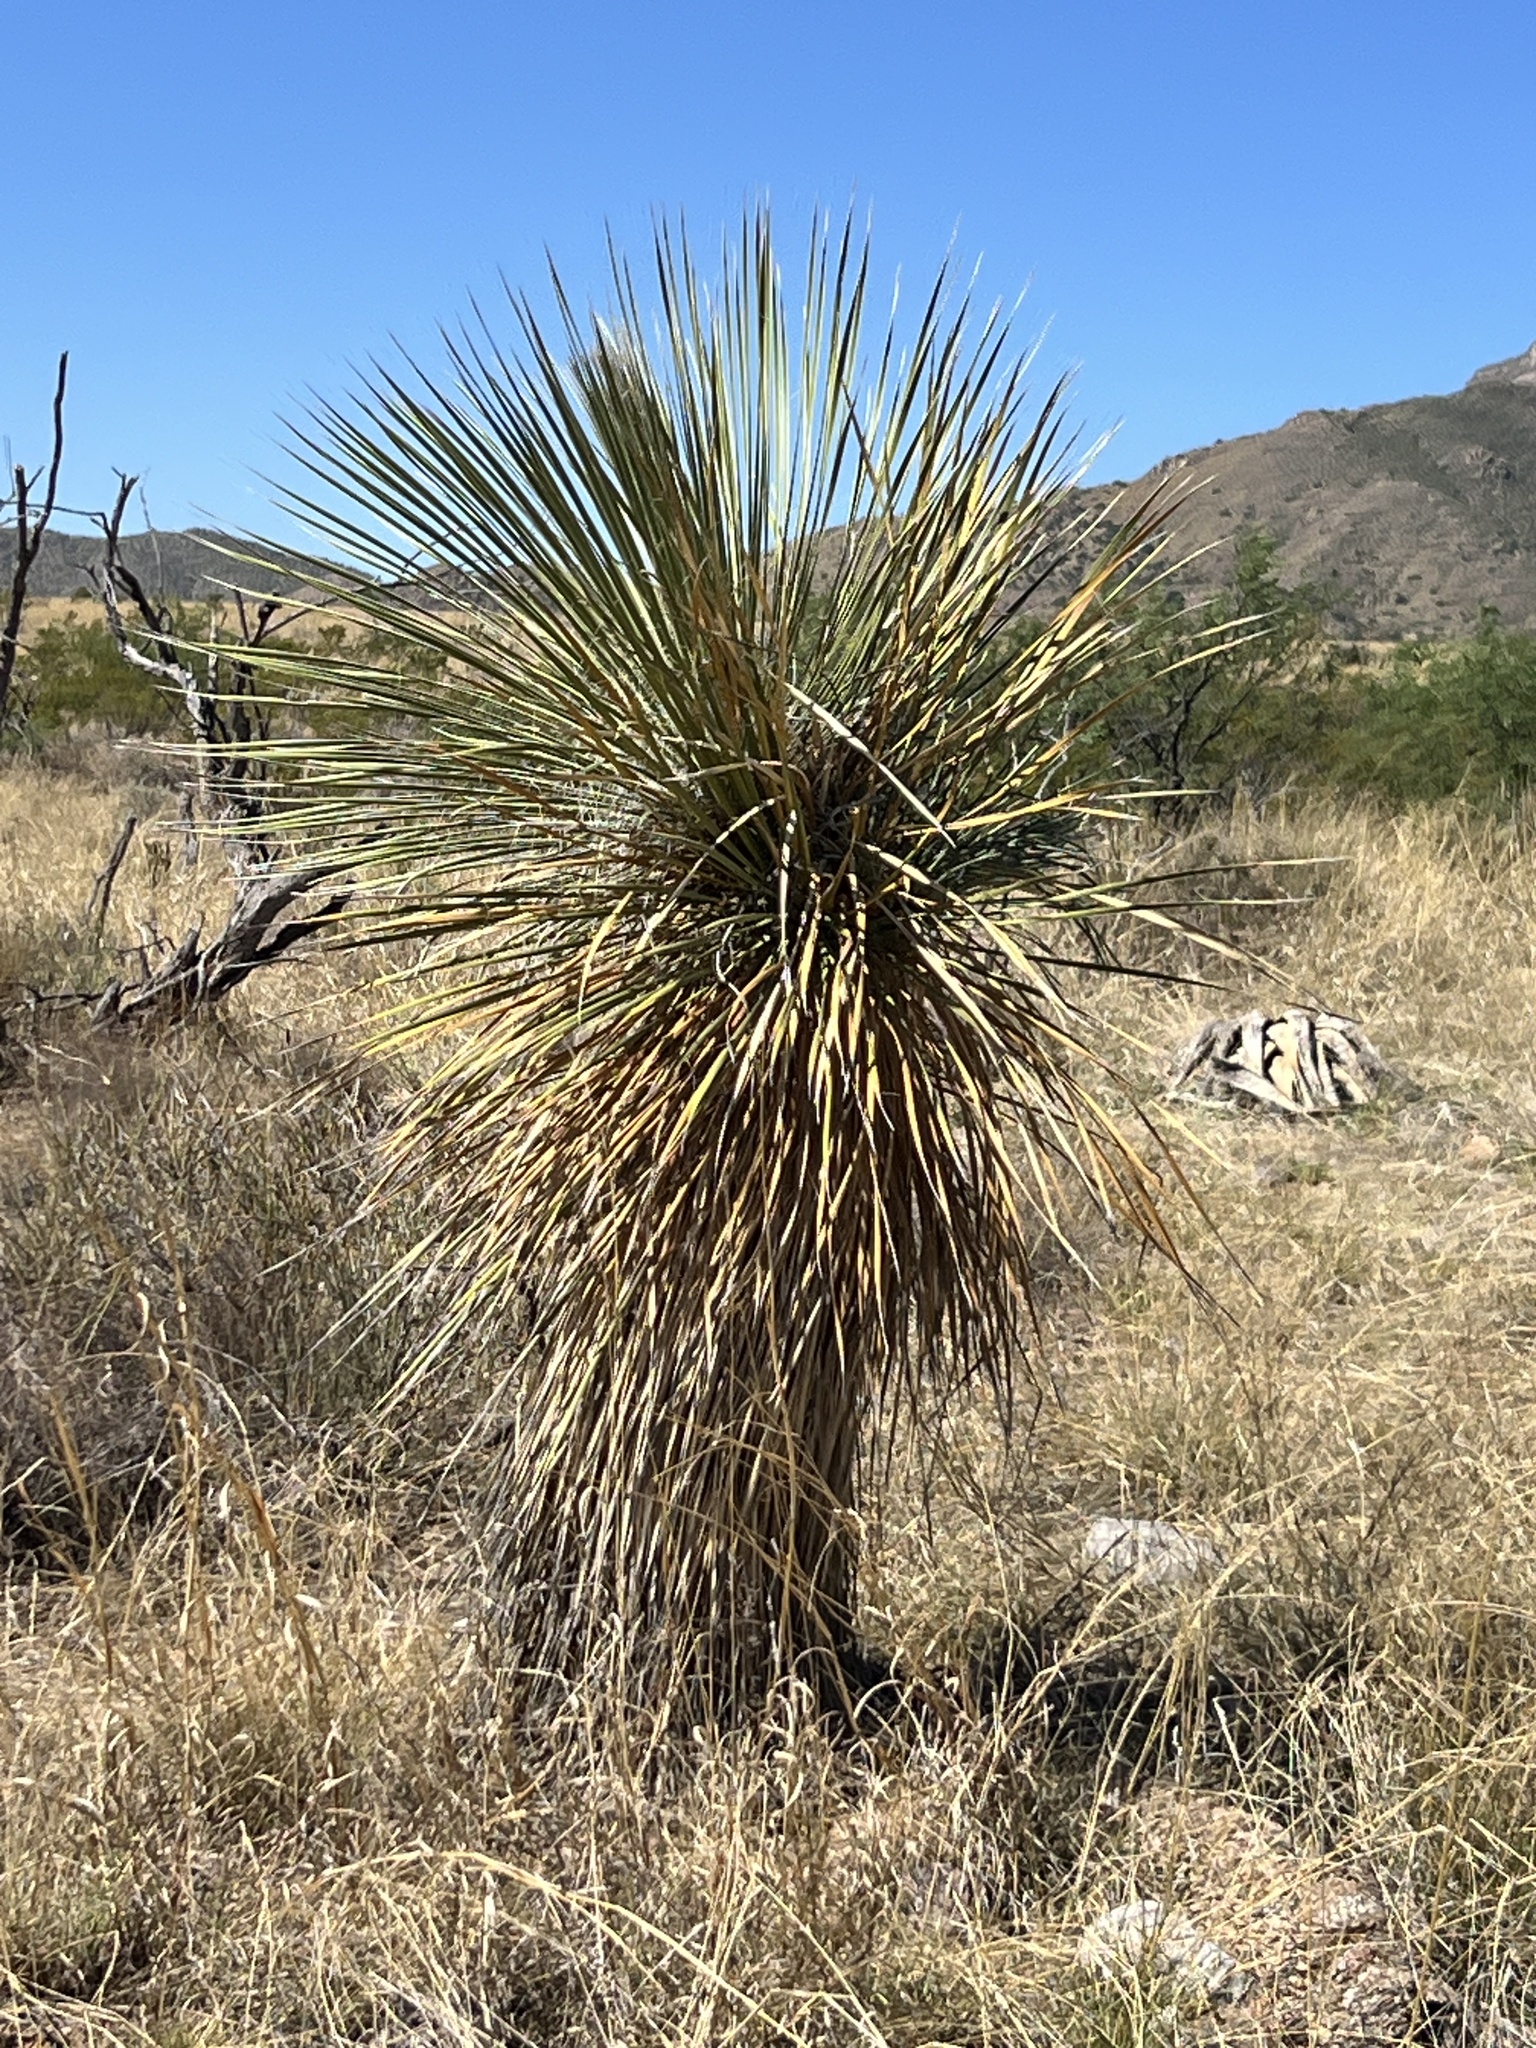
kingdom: Plantae
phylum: Tracheophyta
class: Liliopsida
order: Asparagales
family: Asparagaceae
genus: Yucca
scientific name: Yucca elata
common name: Palmella
